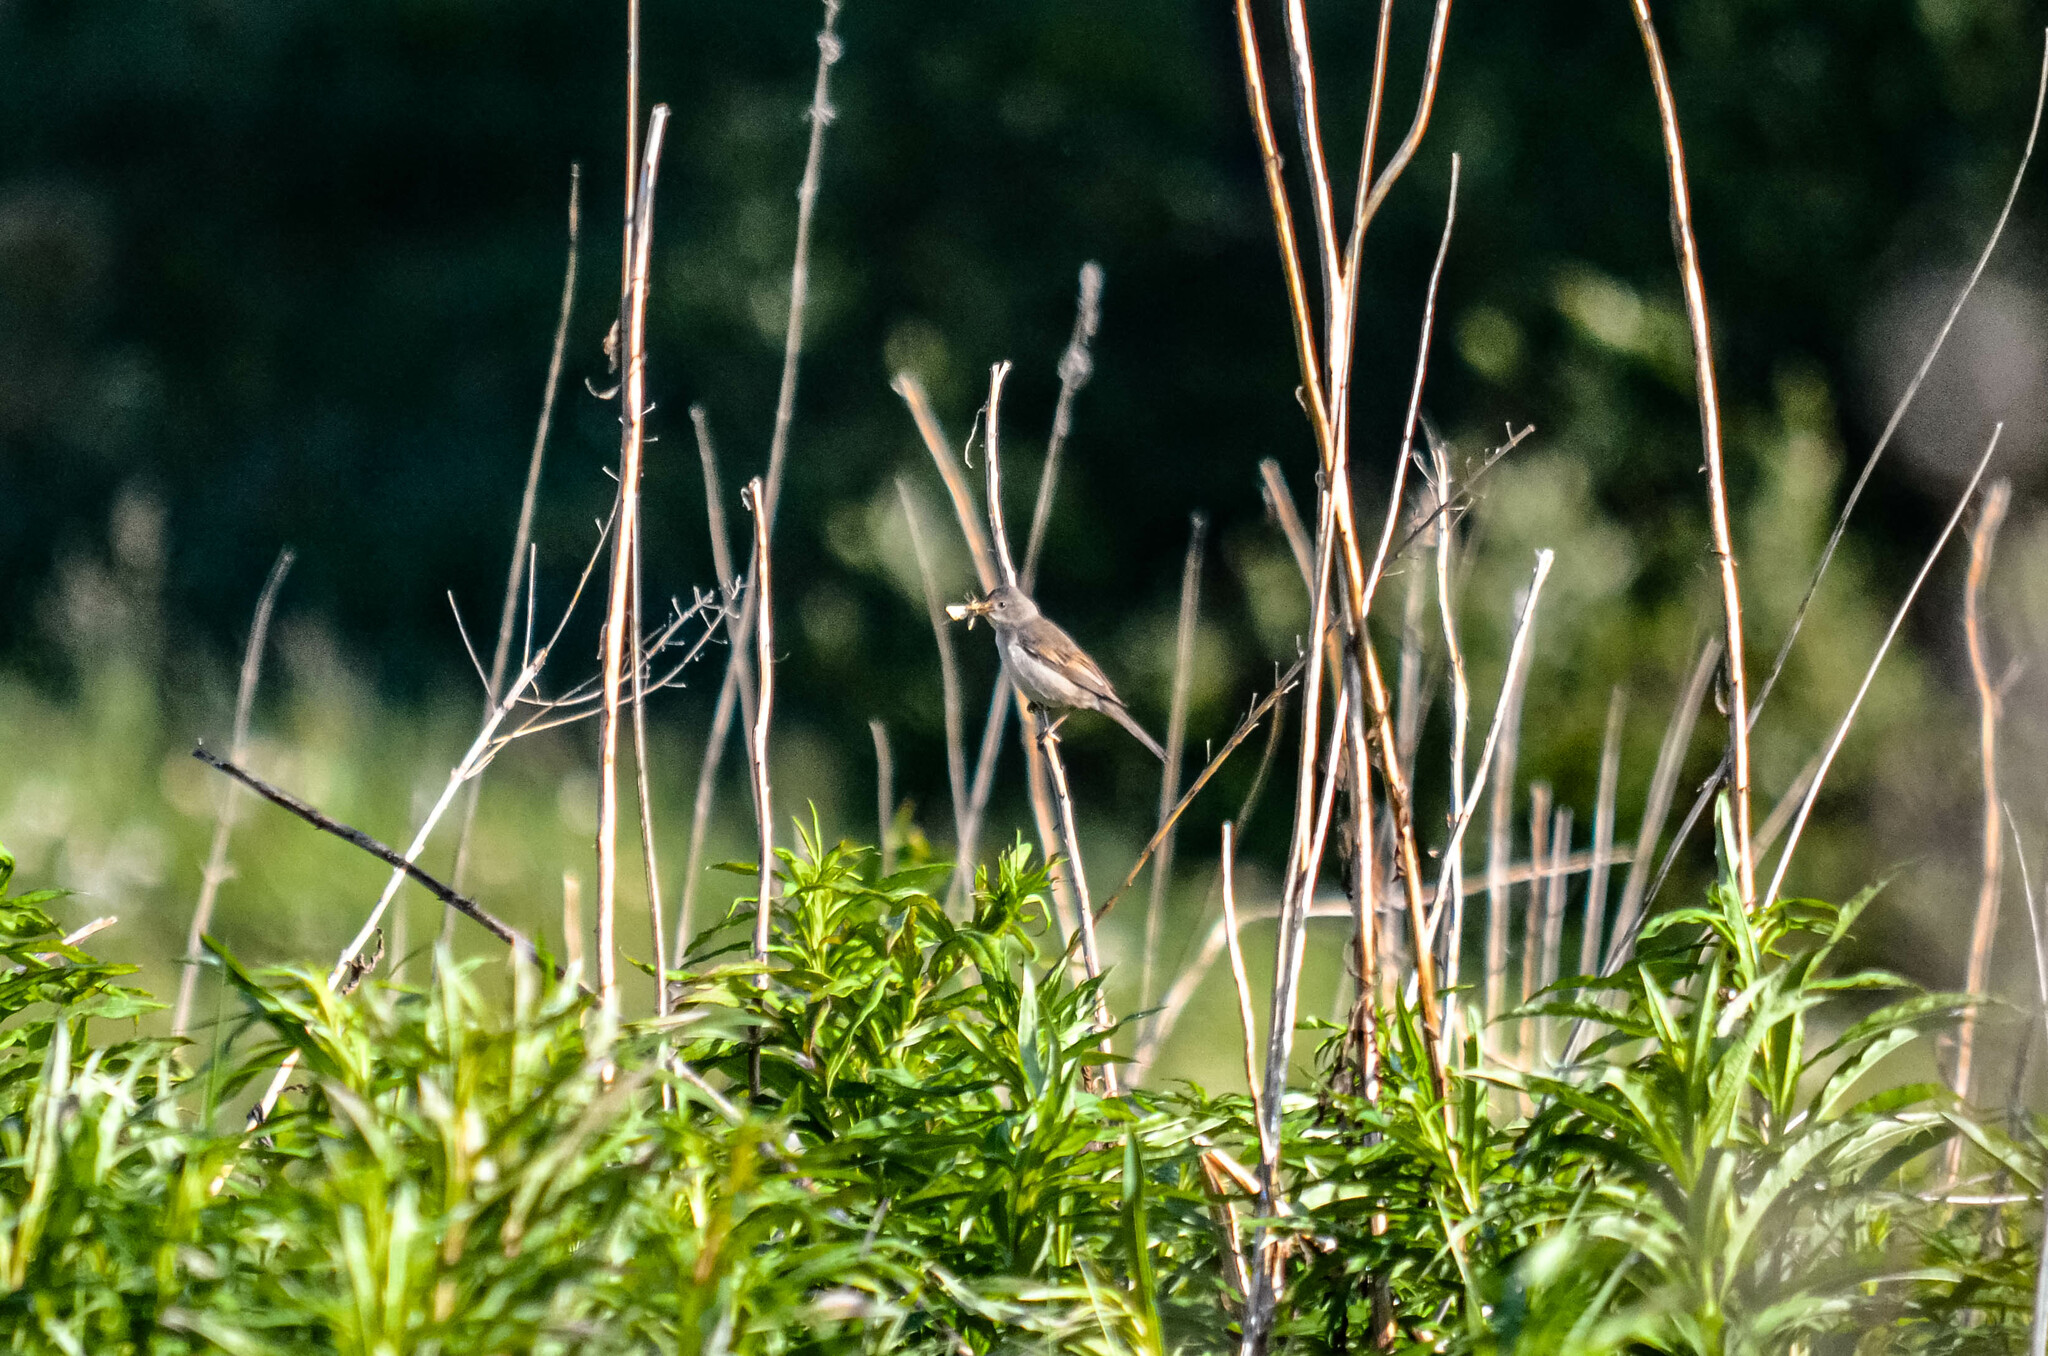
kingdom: Animalia
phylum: Chordata
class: Aves
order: Passeriformes
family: Sylviidae
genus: Sylvia
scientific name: Sylvia communis
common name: Common whitethroat
